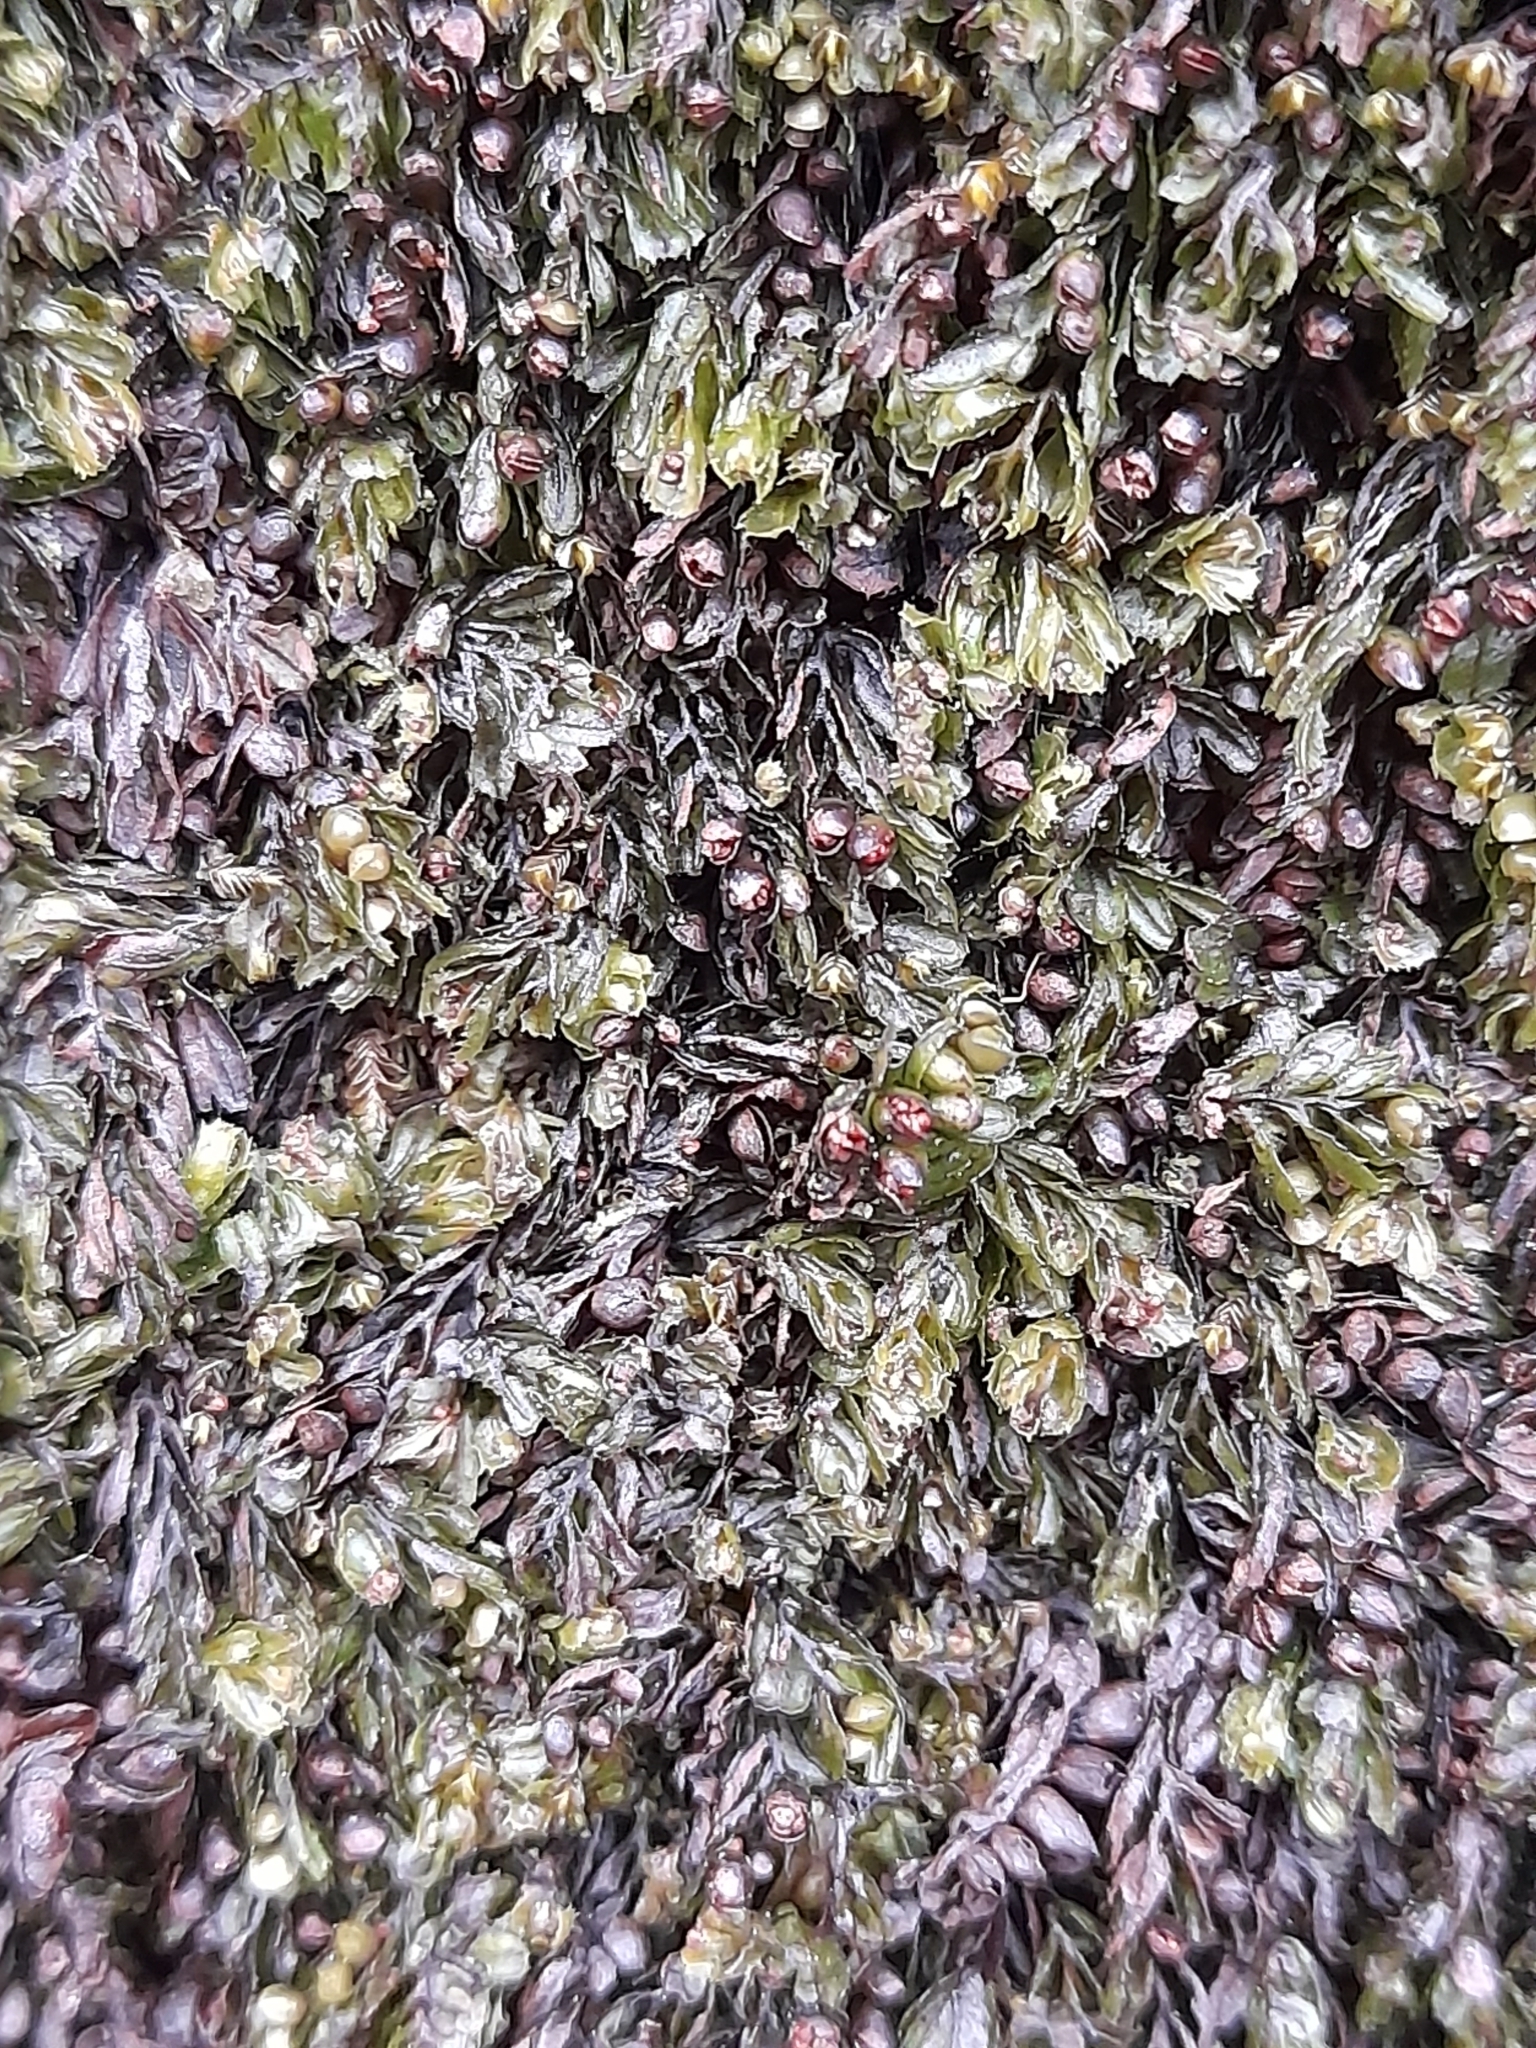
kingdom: Plantae
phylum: Tracheophyta
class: Polypodiopsida
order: Hymenophyllales
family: Hymenophyllaceae
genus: Hymenophyllum
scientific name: Hymenophyllum falklandicum
